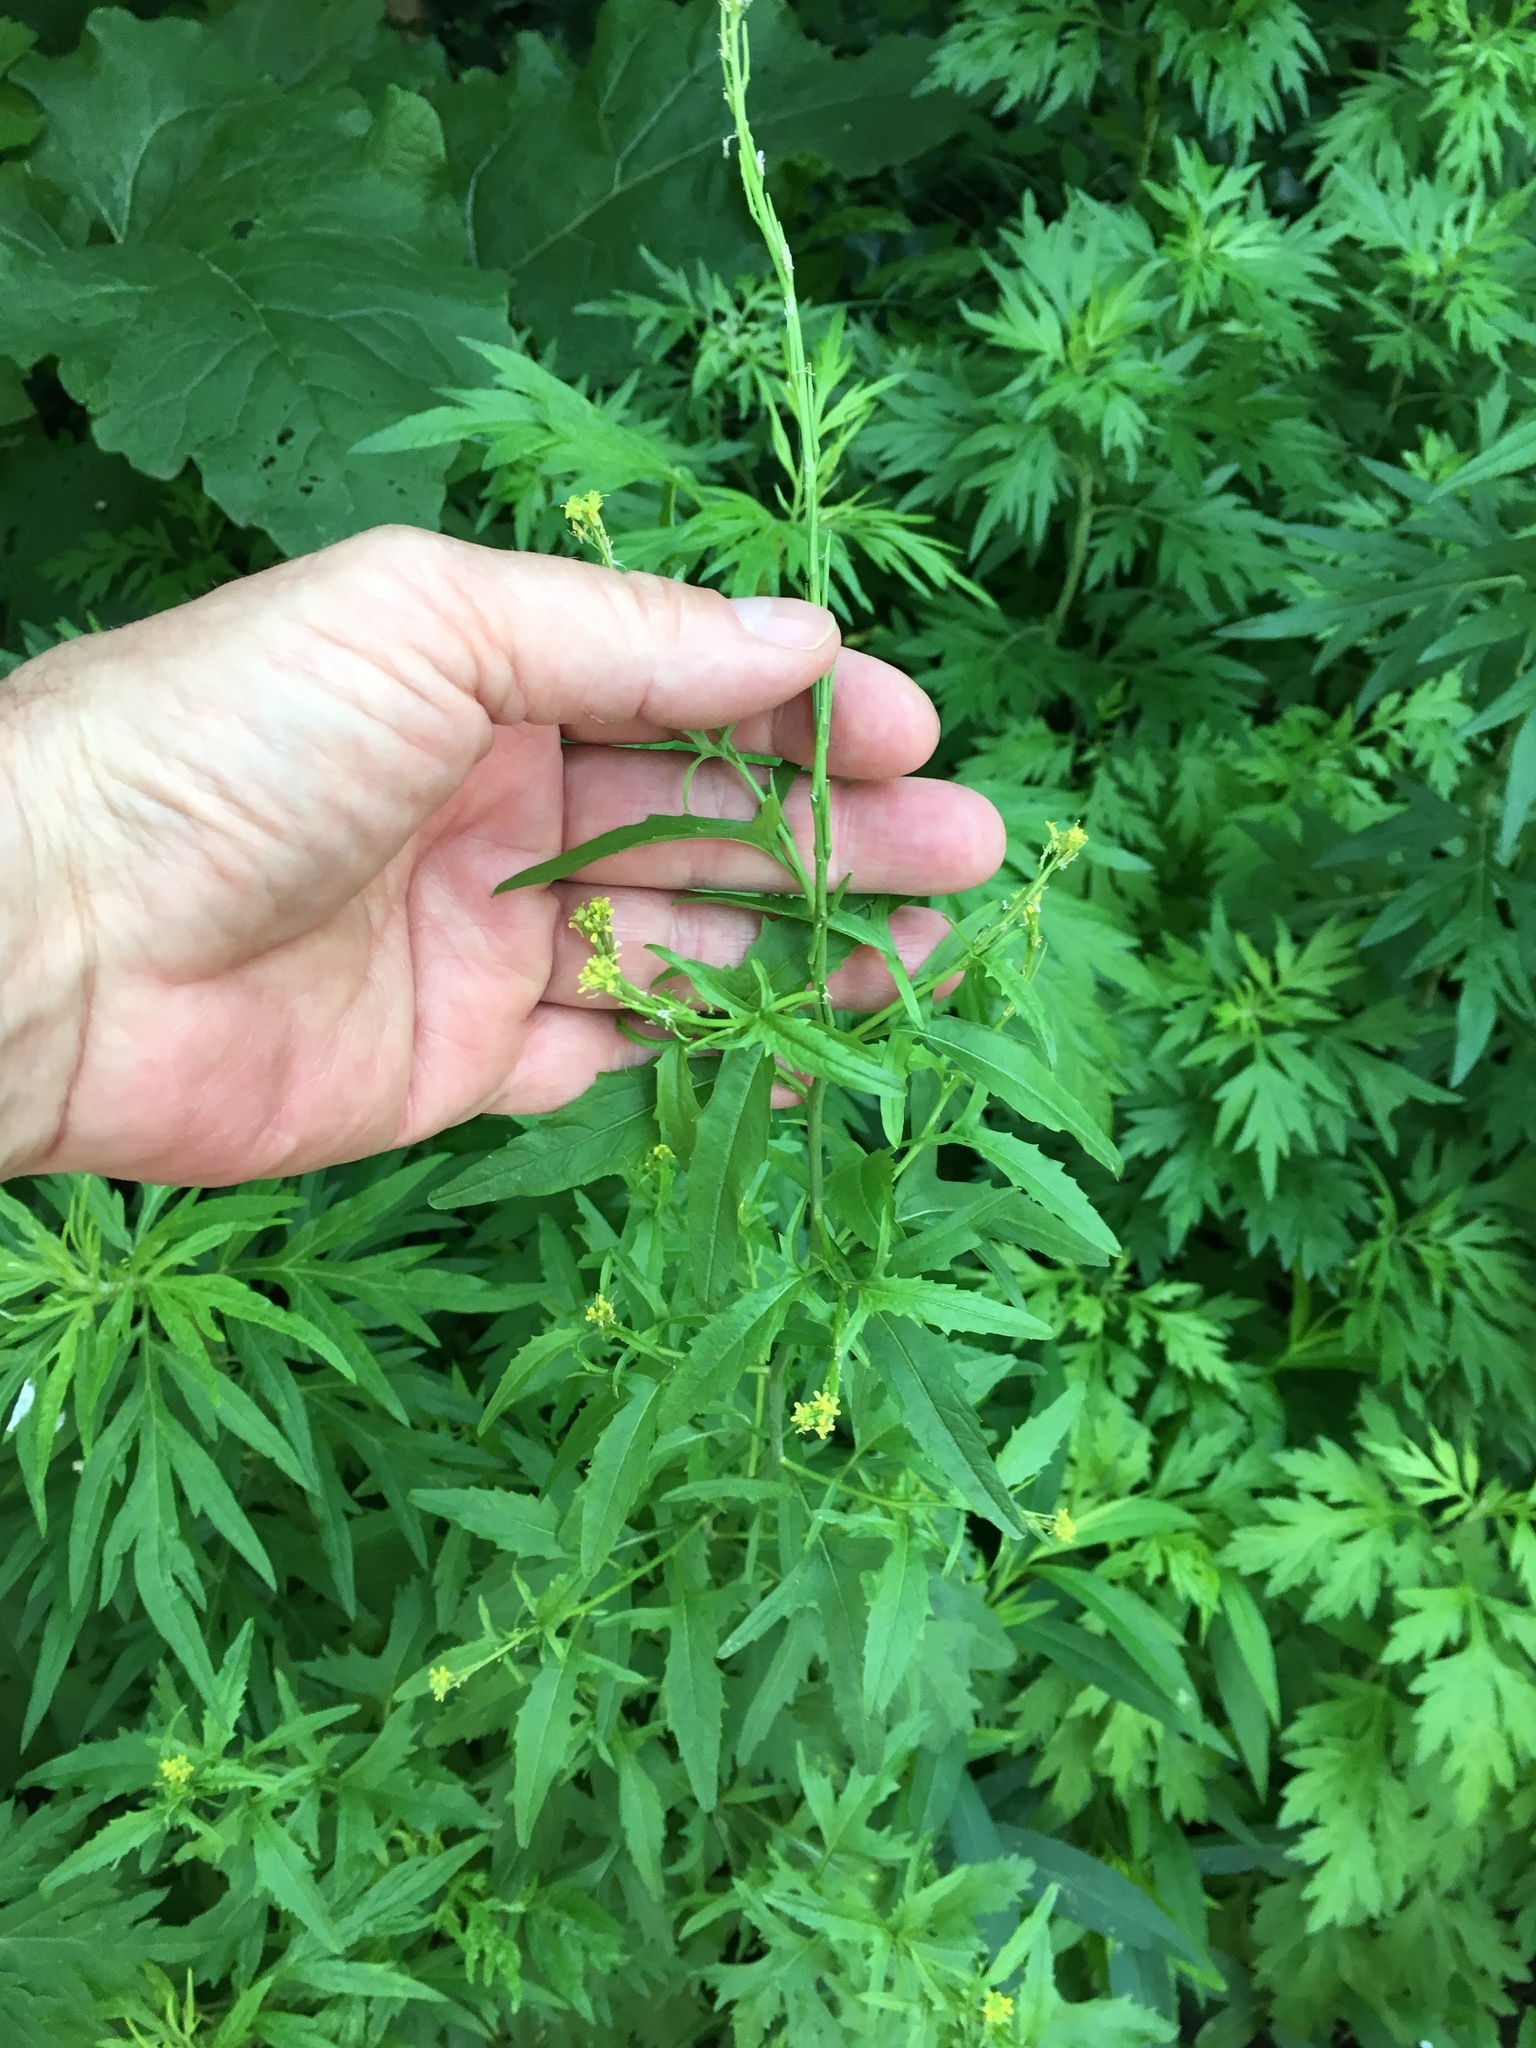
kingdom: Plantae
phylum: Tracheophyta
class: Magnoliopsida
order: Brassicales
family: Brassicaceae
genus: Sisymbrium
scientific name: Sisymbrium officinale
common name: Hedge mustard
